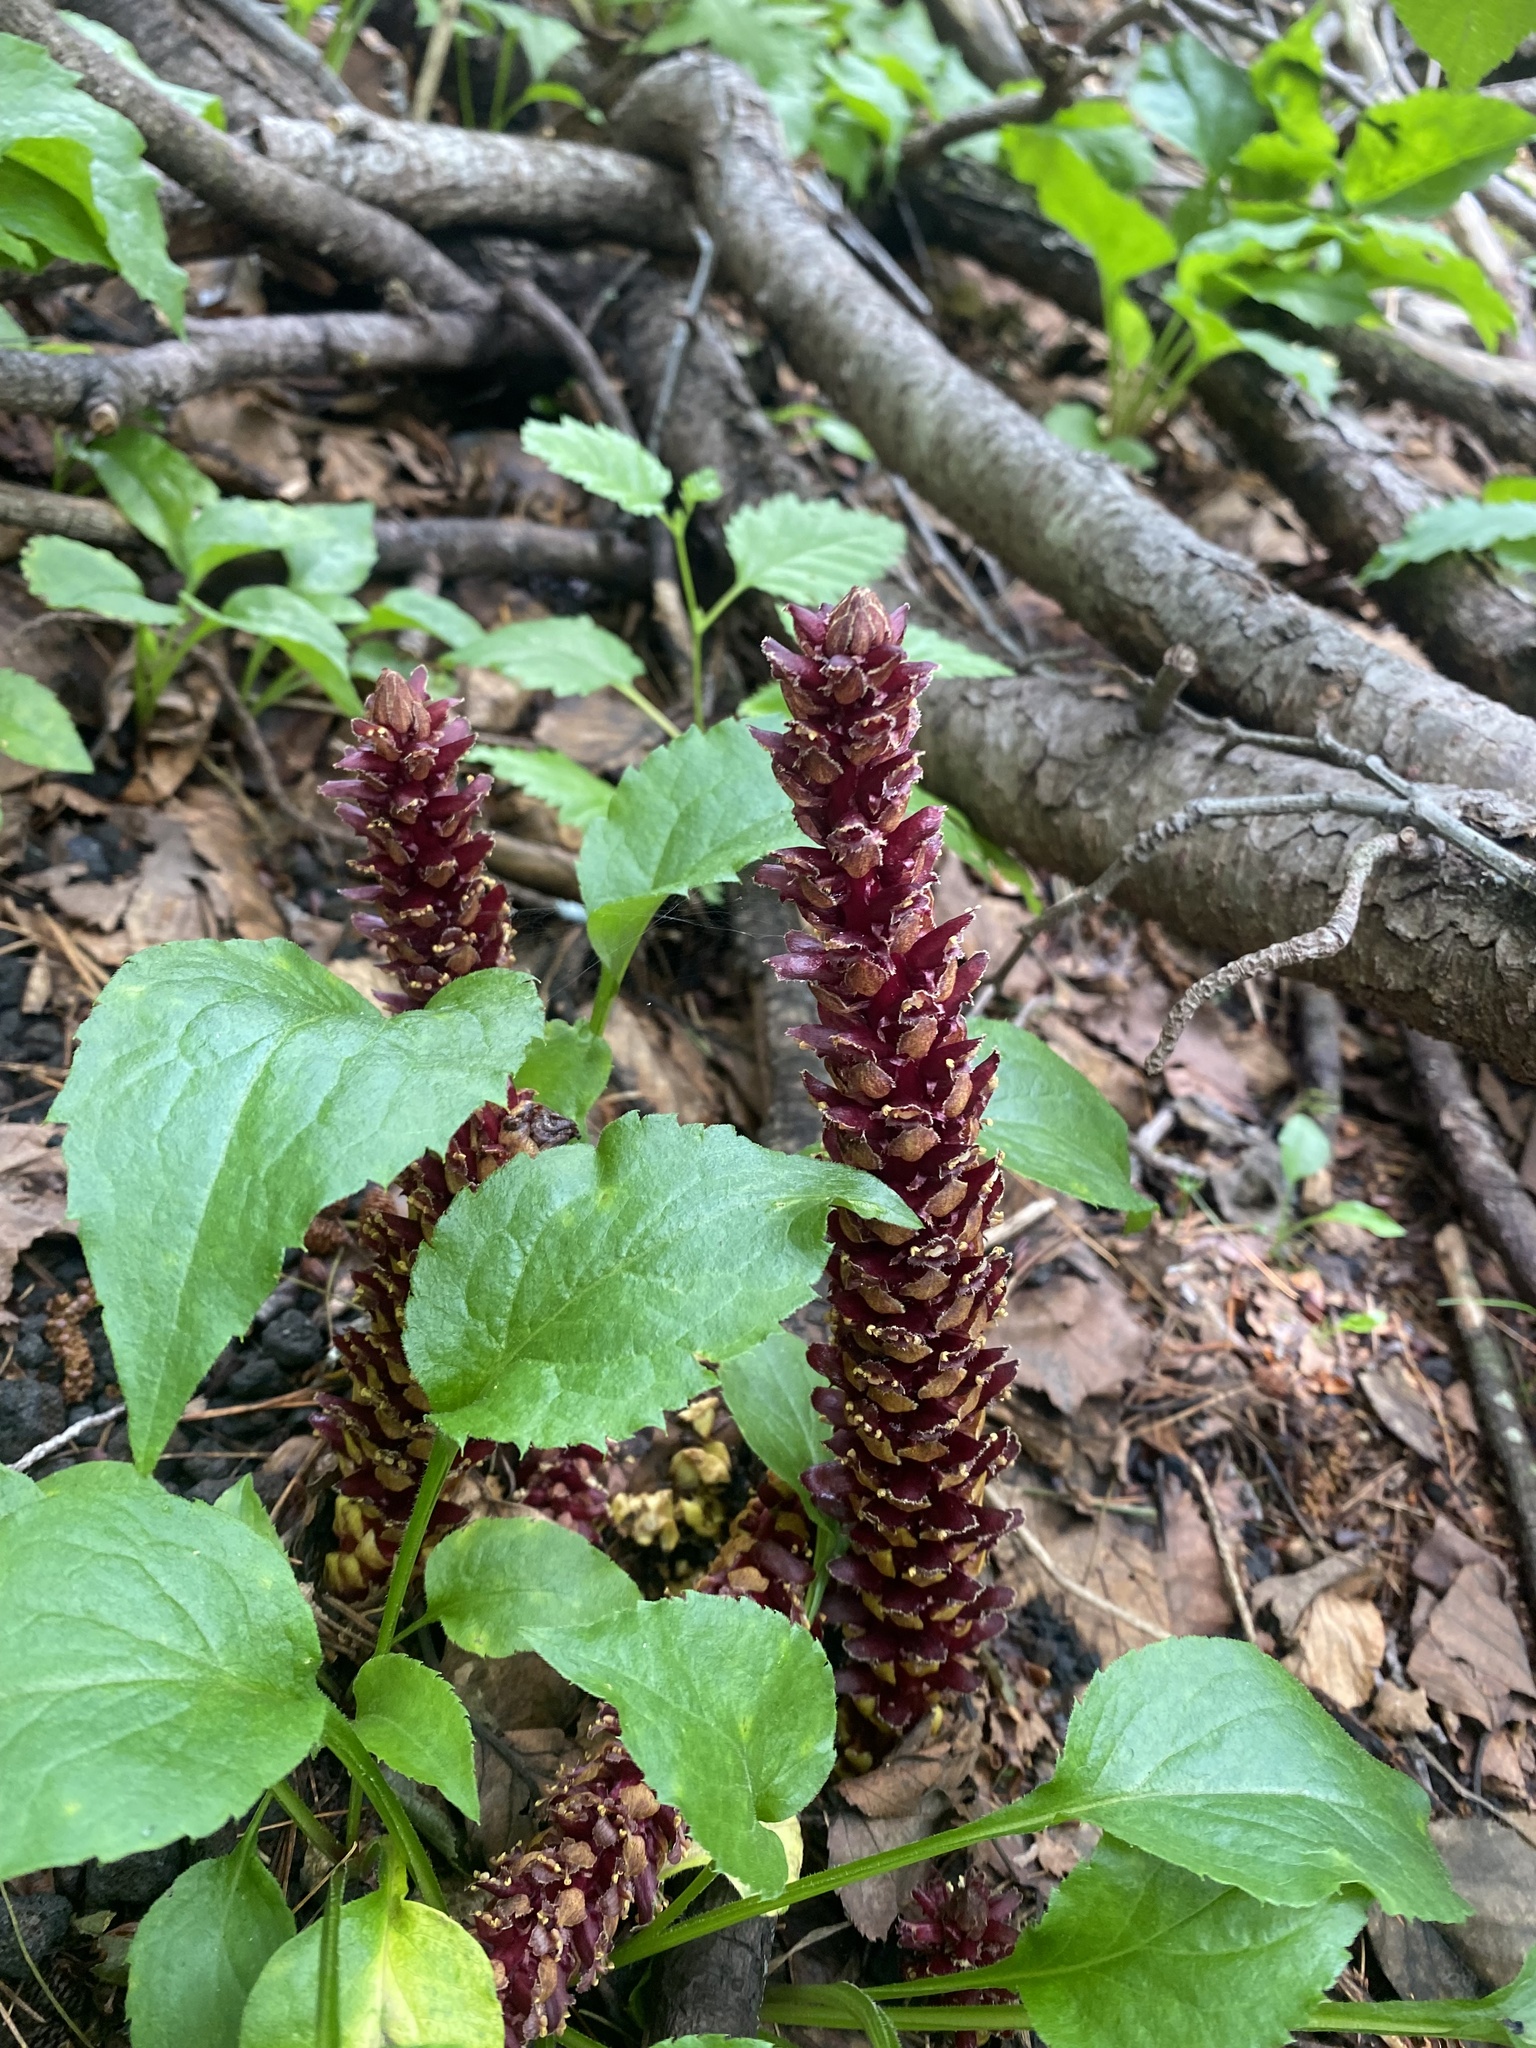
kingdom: Plantae
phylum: Tracheophyta
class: Magnoliopsida
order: Lamiales
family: Orobanchaceae
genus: Boschniakia
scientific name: Boschniakia rossica
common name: Poque
